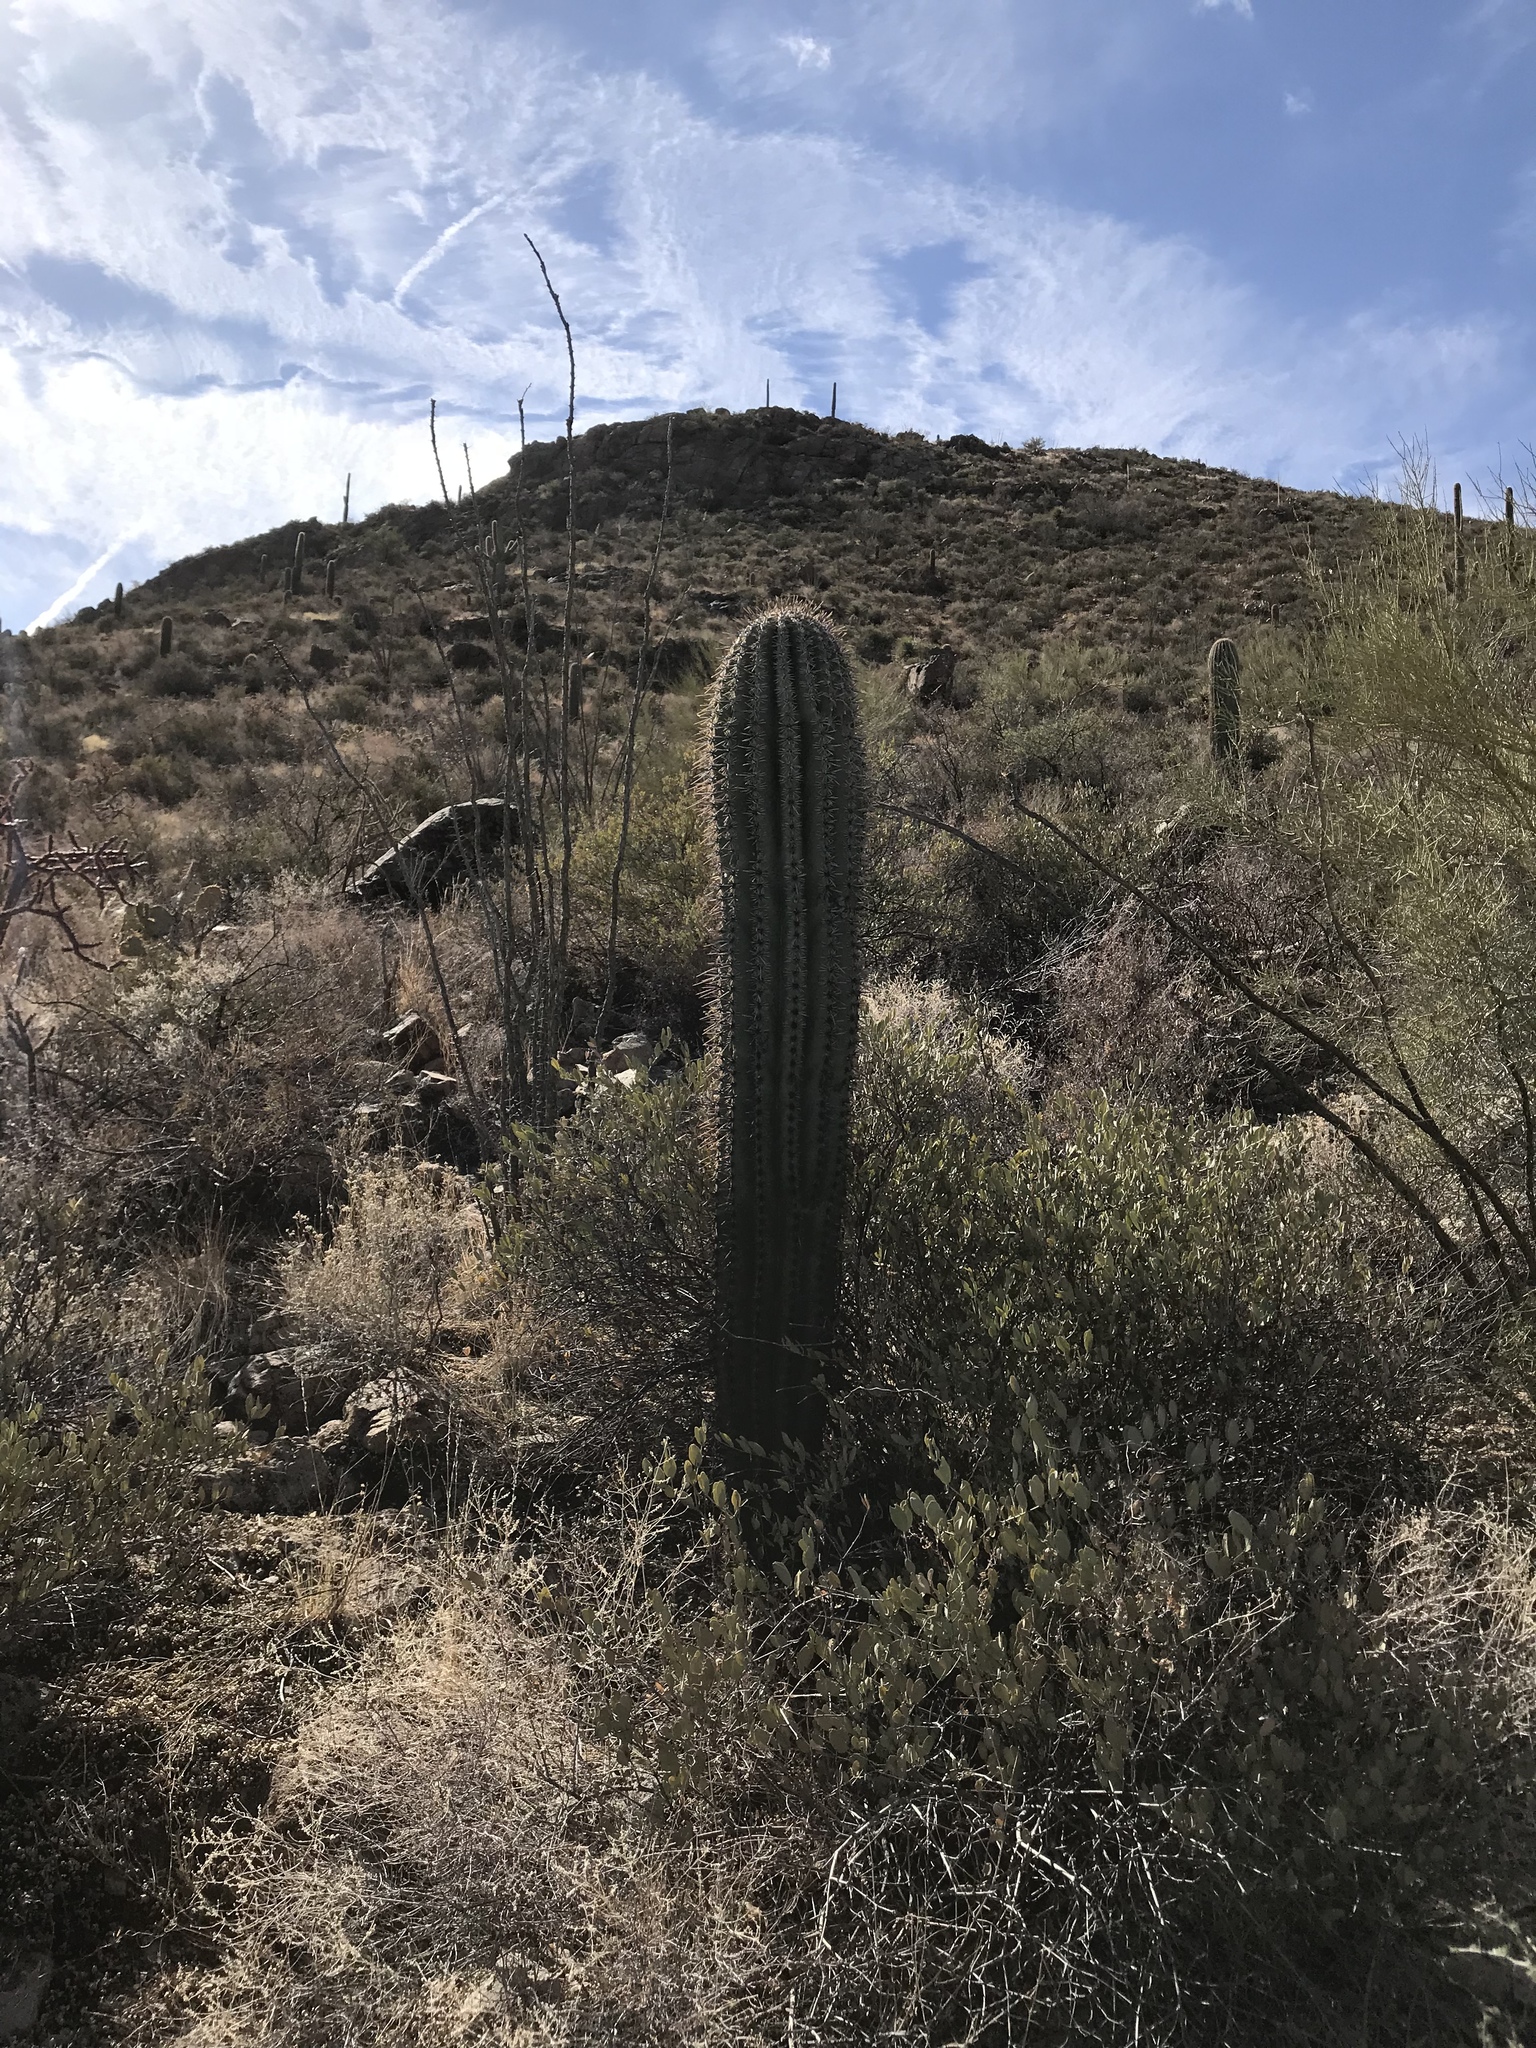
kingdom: Plantae
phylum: Tracheophyta
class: Magnoliopsida
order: Caryophyllales
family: Cactaceae
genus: Carnegiea
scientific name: Carnegiea gigantea
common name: Saguaro
